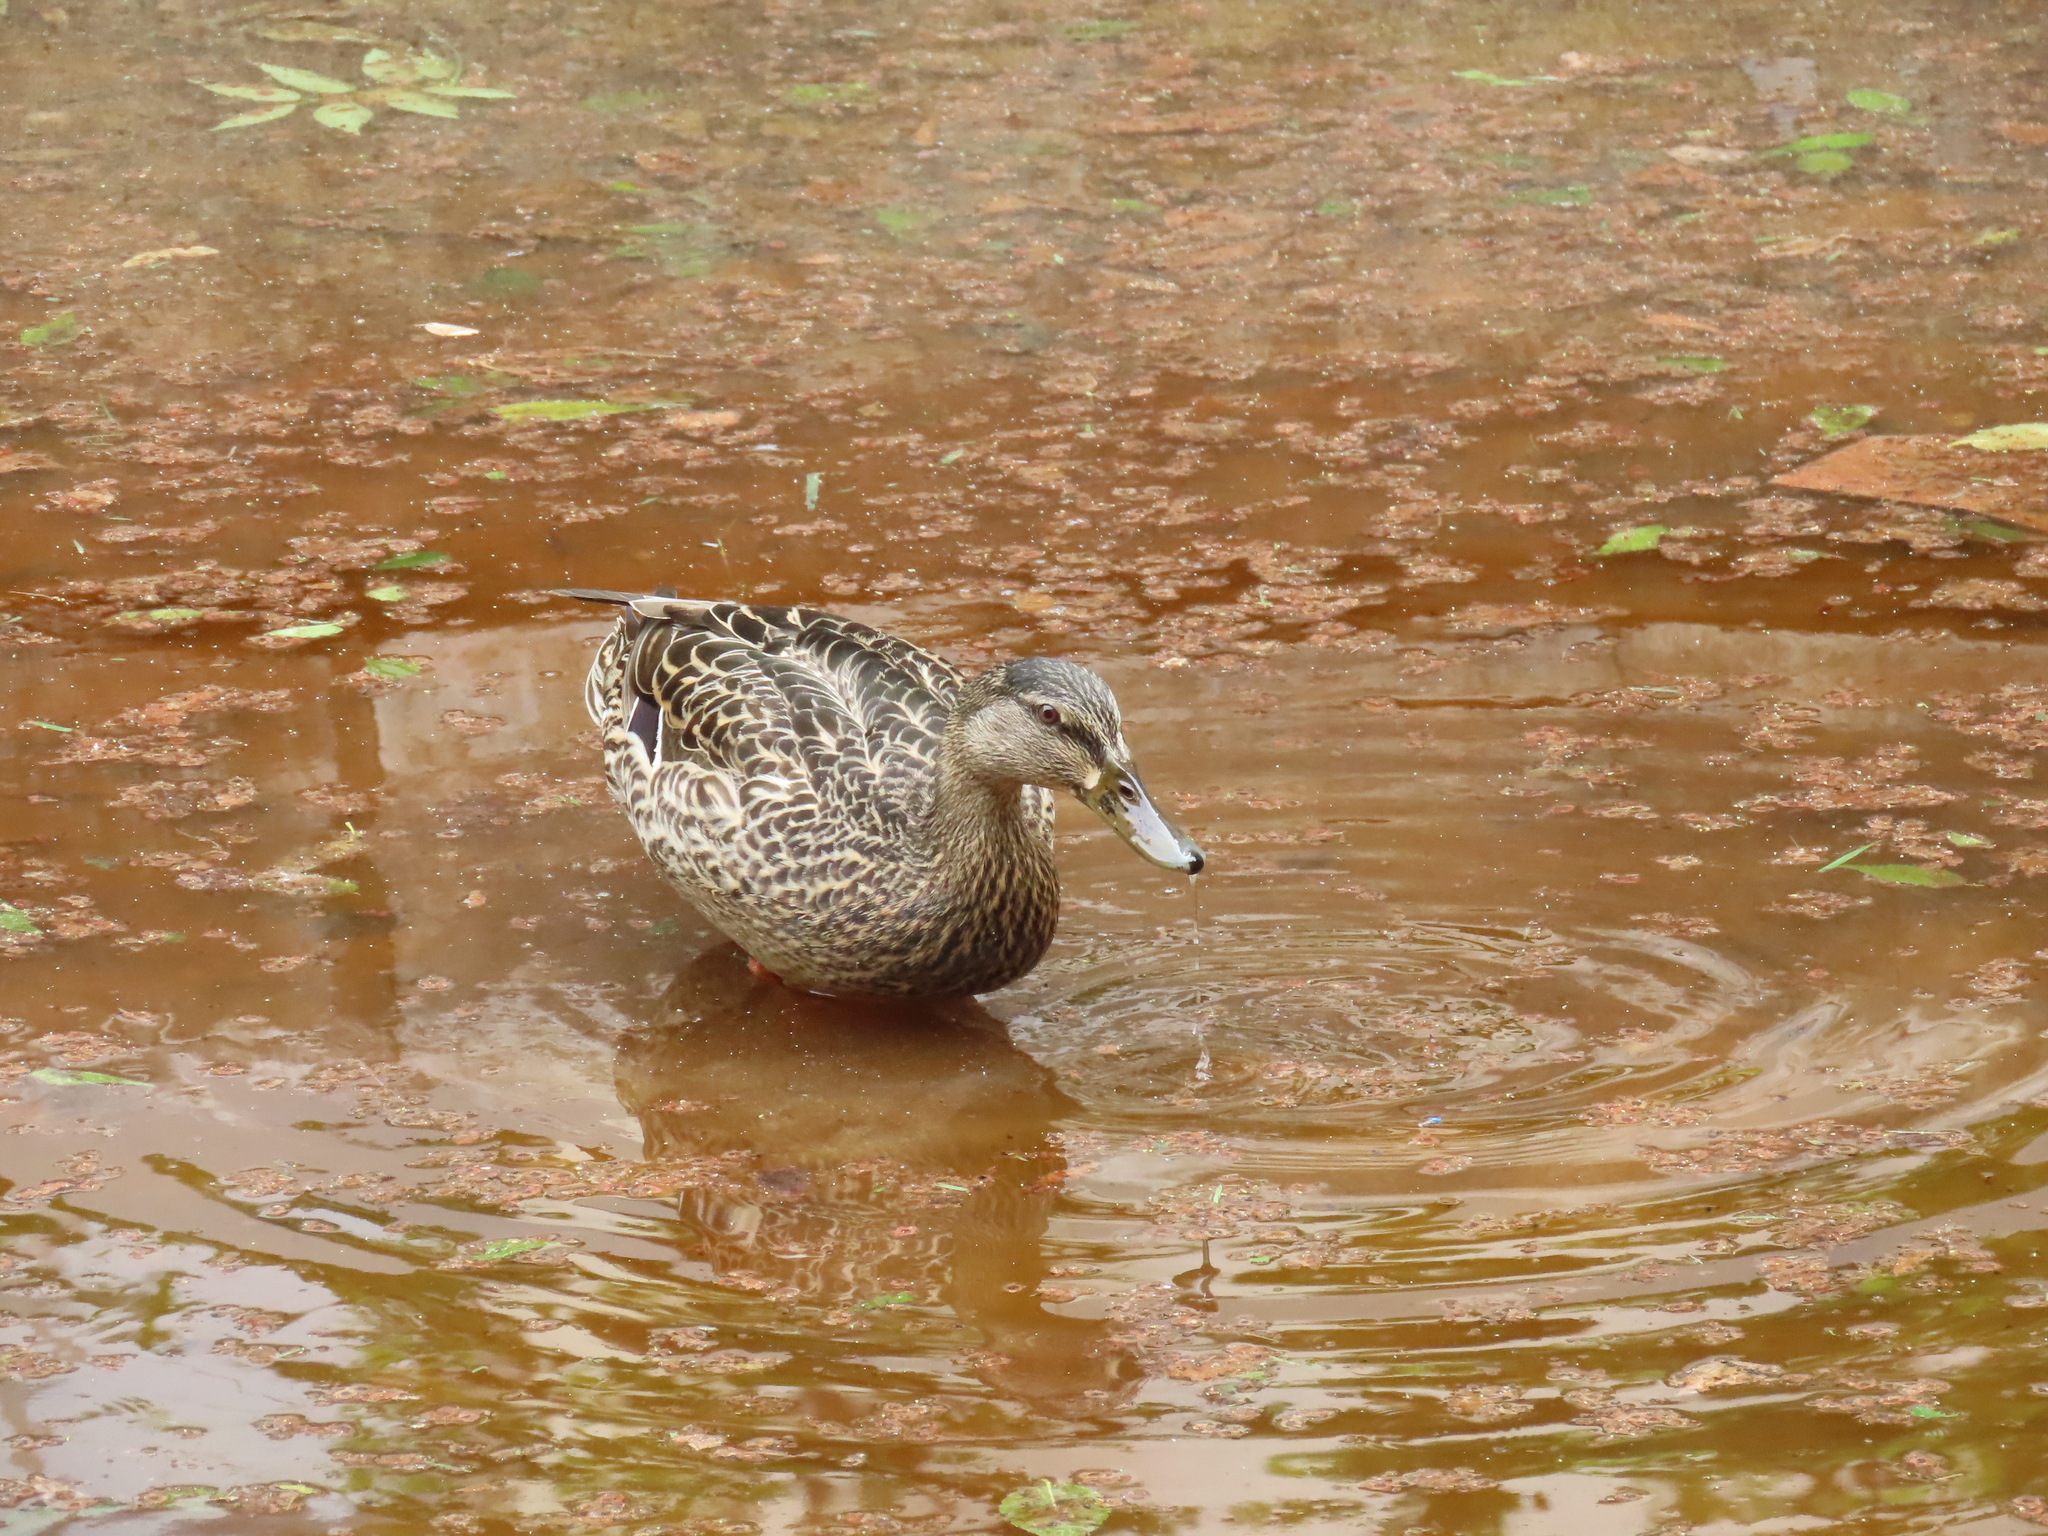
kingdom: Animalia
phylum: Chordata
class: Aves
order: Anseriformes
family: Anatidae
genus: Anas
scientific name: Anas platyrhynchos
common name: Mallard
